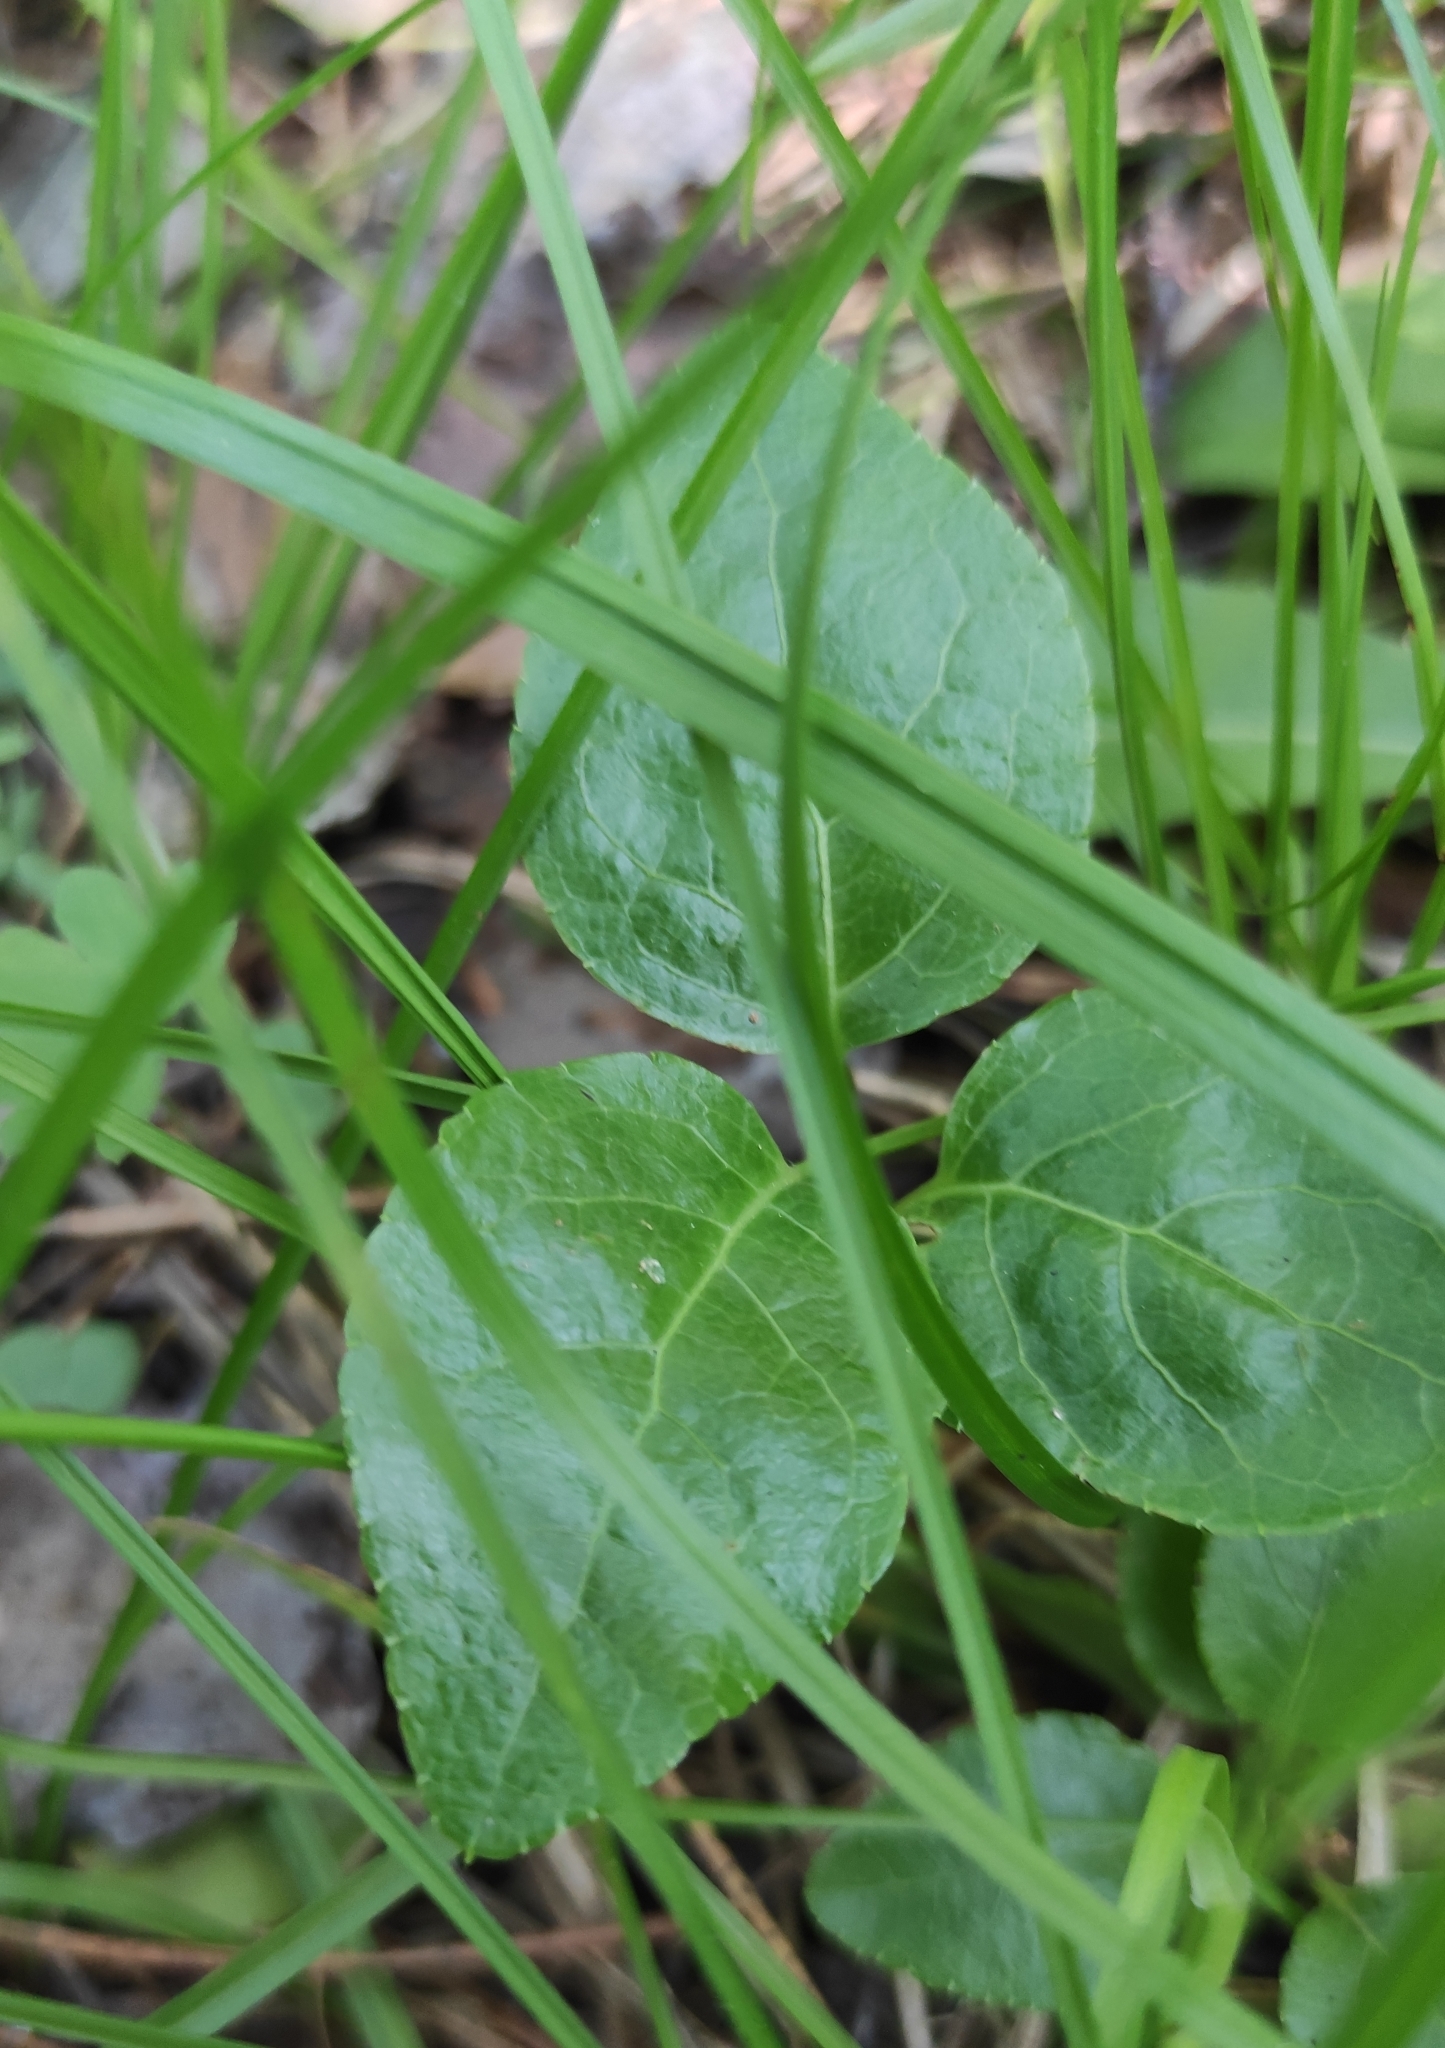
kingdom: Plantae
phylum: Tracheophyta
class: Magnoliopsida
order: Ericales
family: Ericaceae
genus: Orthilia
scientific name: Orthilia secunda
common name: One-sided orthilia
